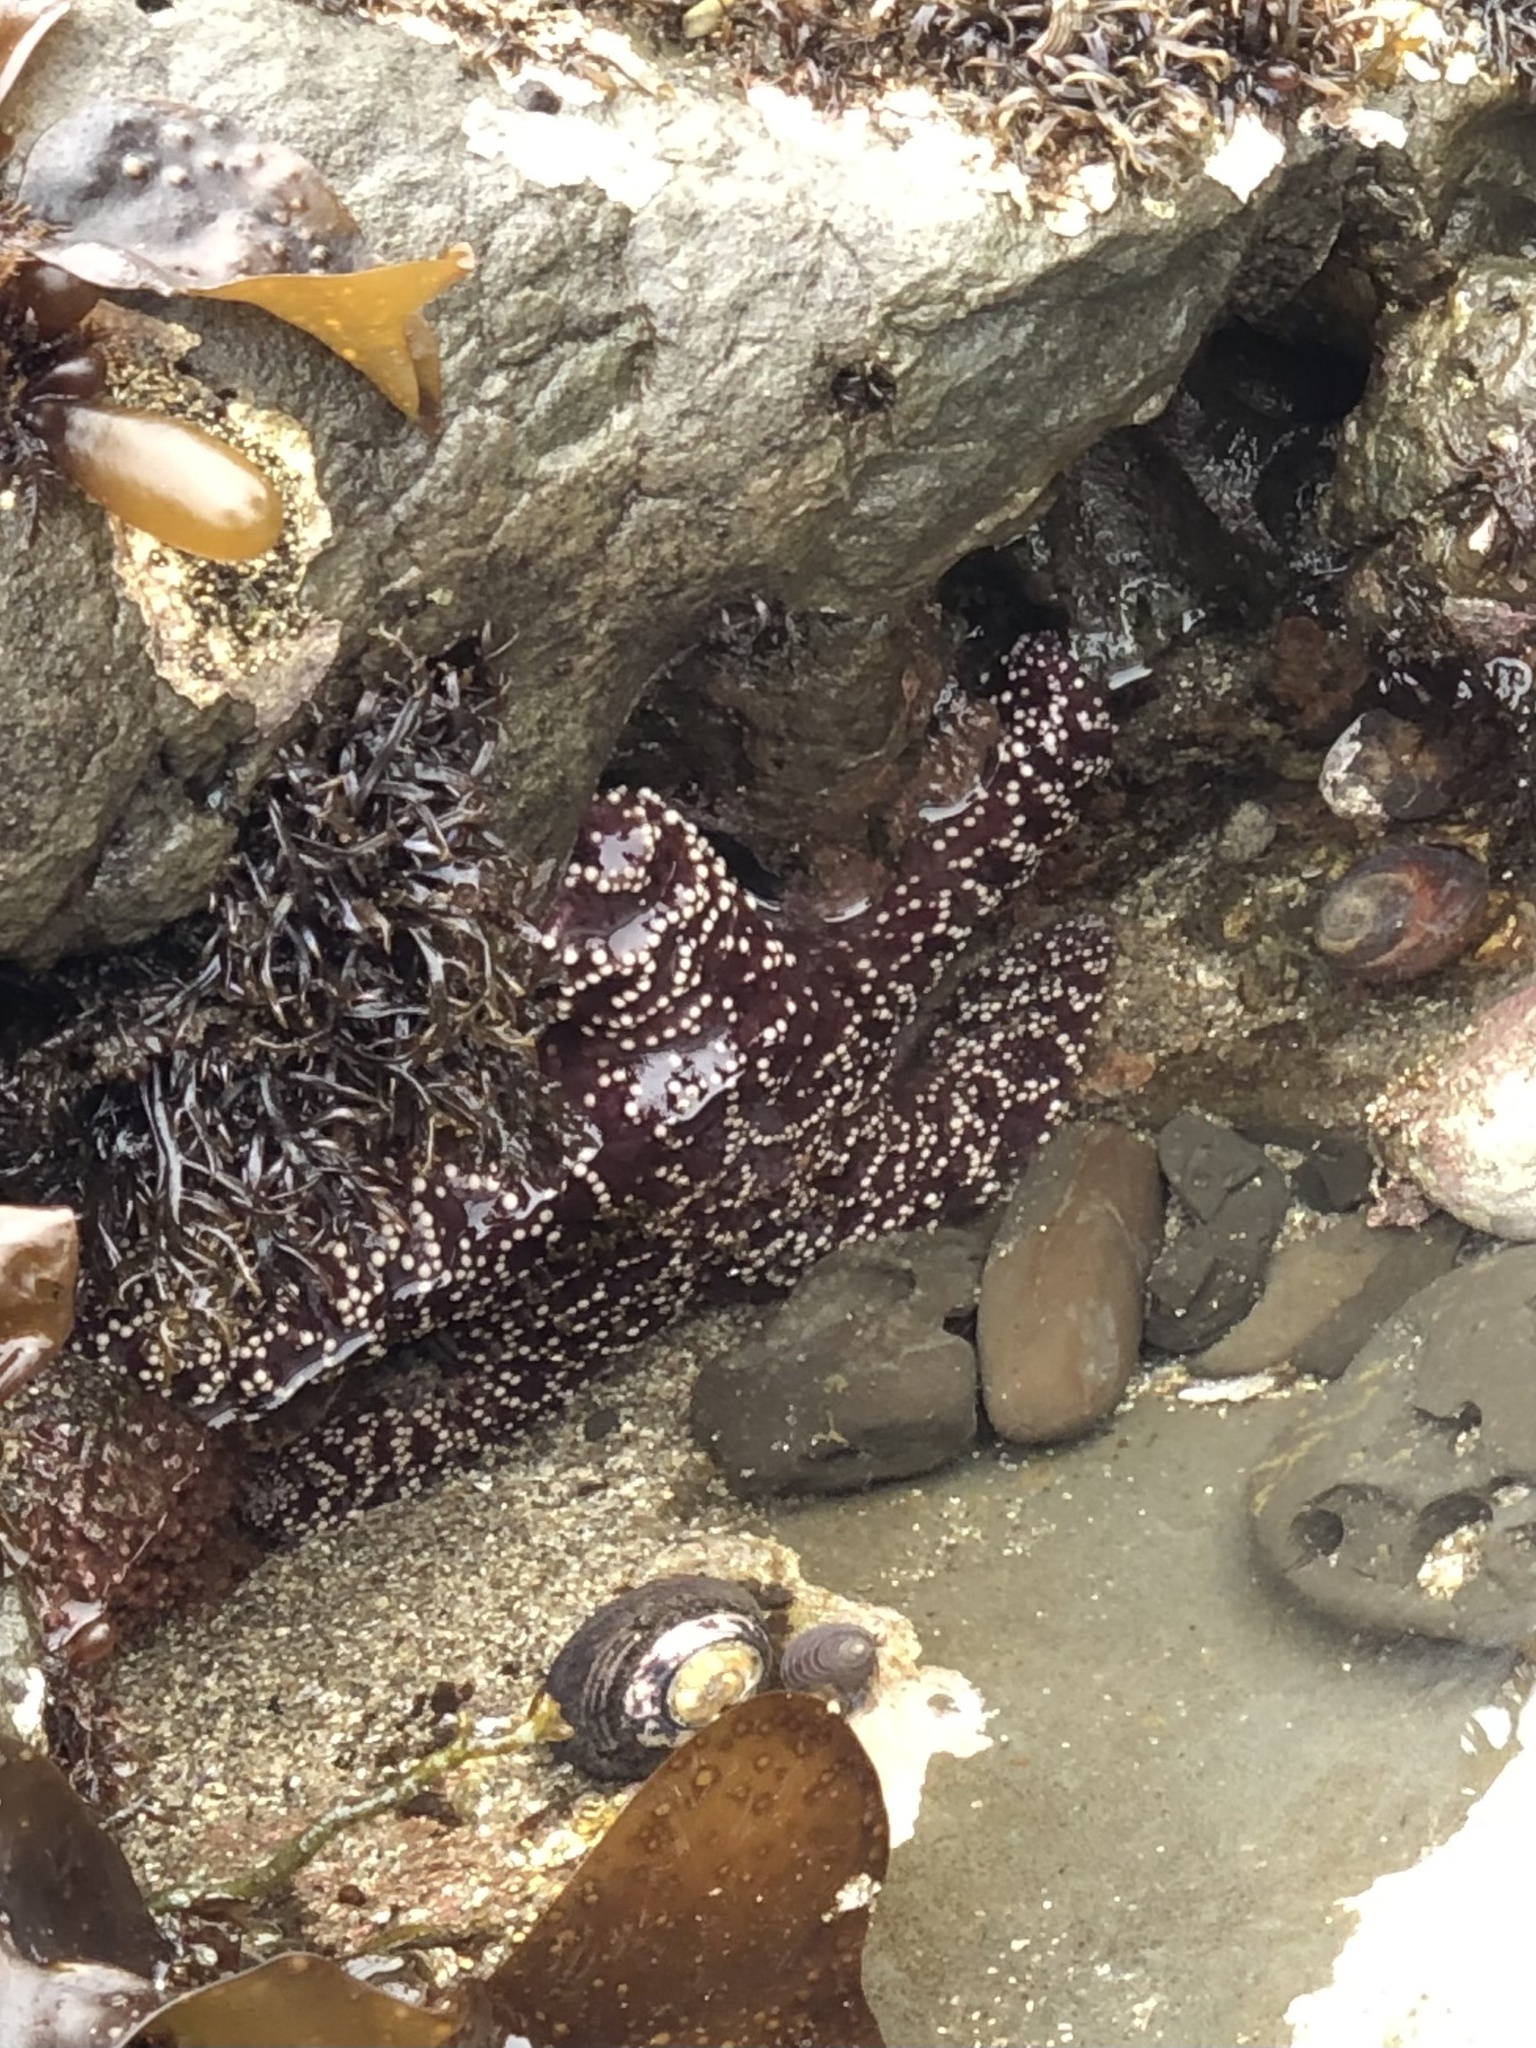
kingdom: Animalia
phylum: Echinodermata
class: Asteroidea
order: Forcipulatida
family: Asteriidae
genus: Pisaster
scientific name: Pisaster ochraceus
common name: Ochre stars
